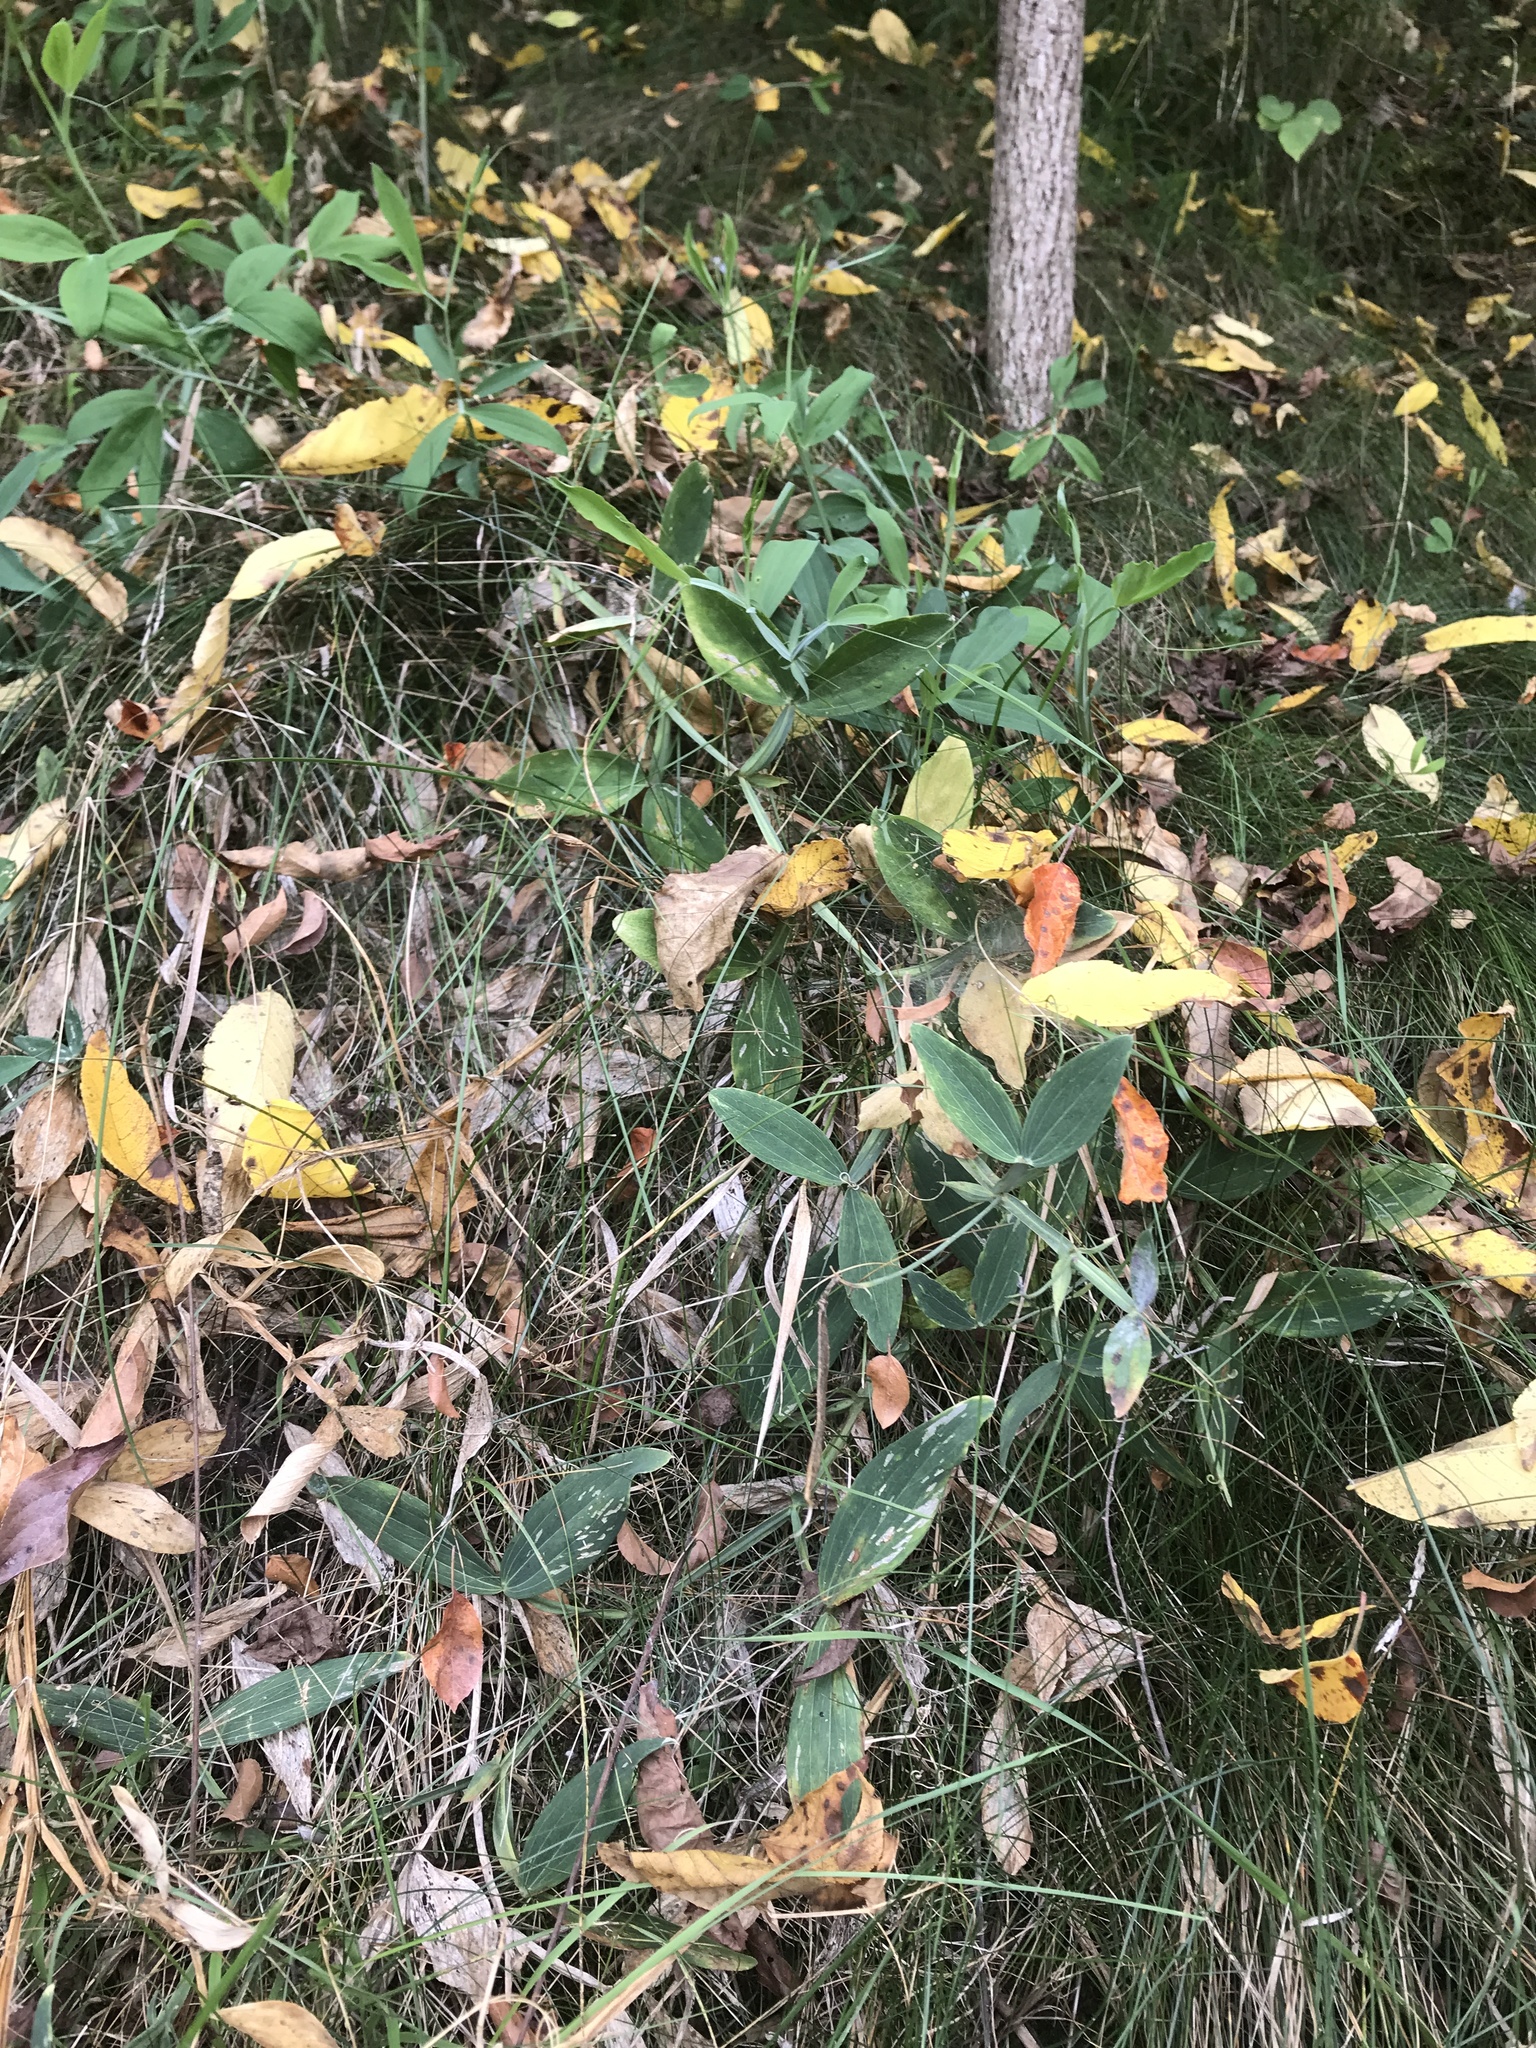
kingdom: Plantae
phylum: Tracheophyta
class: Magnoliopsida
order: Fabales
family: Fabaceae
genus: Lathyrus
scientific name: Lathyrus latifolius
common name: Perennial pea
